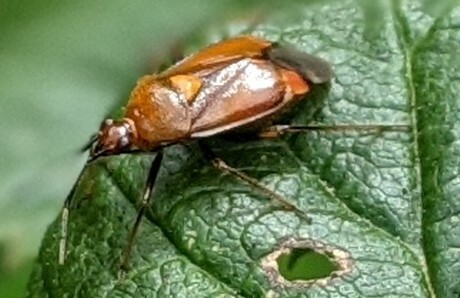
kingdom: Animalia
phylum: Arthropoda
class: Insecta
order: Hemiptera
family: Miridae
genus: Deraeocoris
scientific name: Deraeocoris ruber
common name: Plant bug
